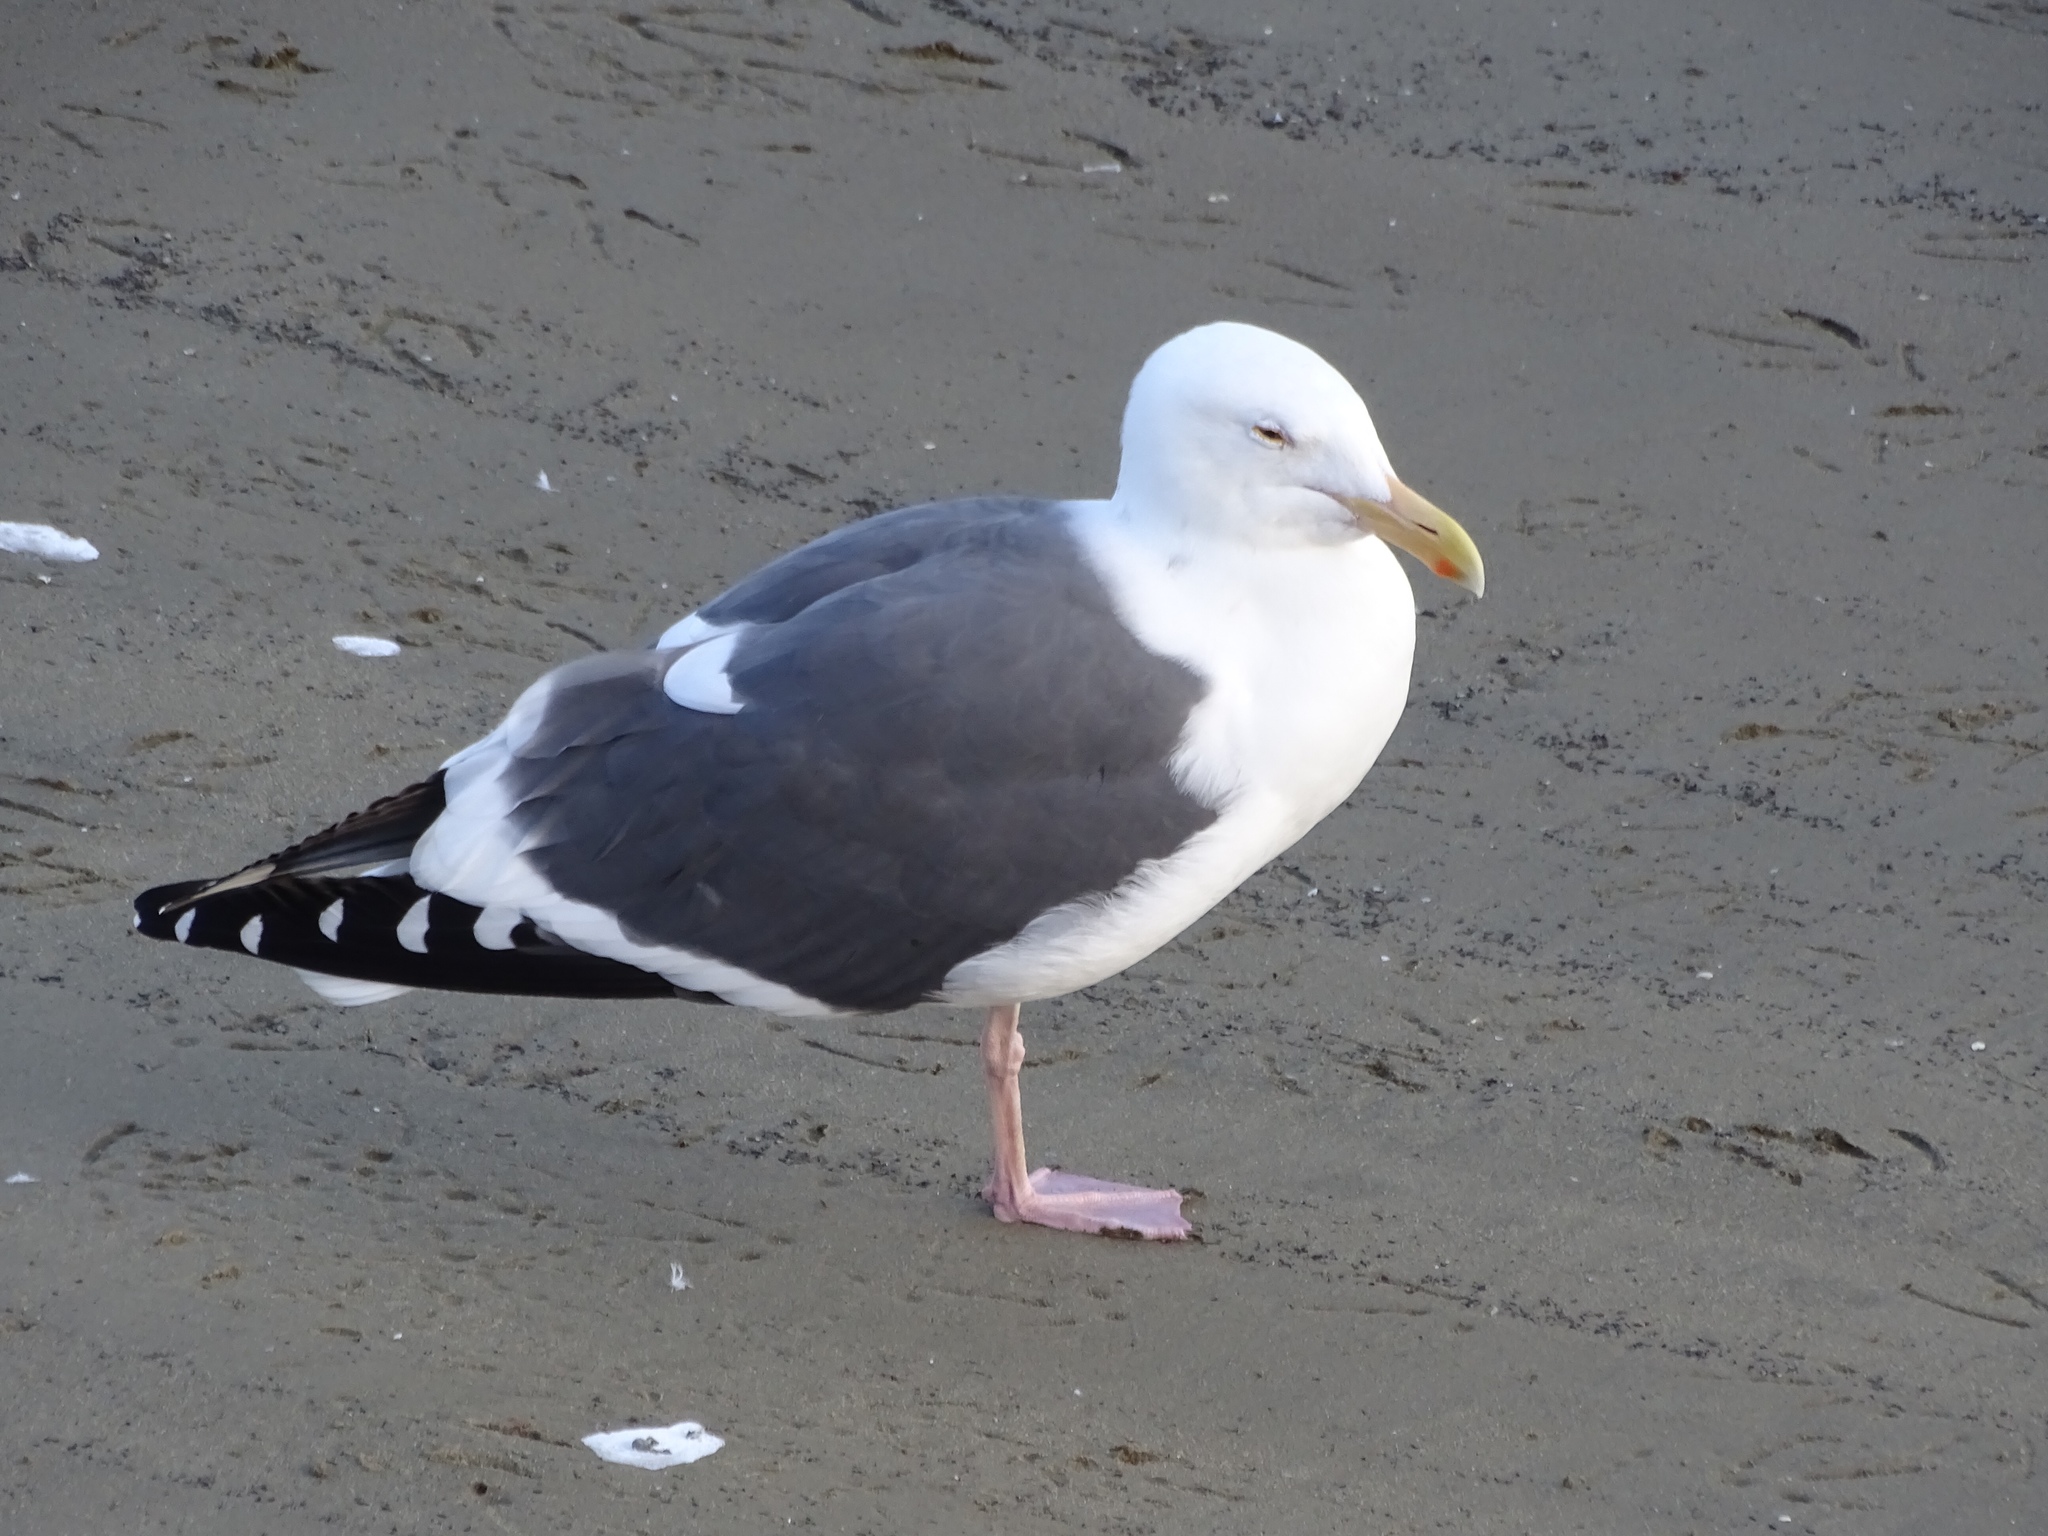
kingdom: Animalia
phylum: Chordata
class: Aves
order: Charadriiformes
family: Laridae
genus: Larus
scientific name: Larus occidentalis
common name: Western gull
